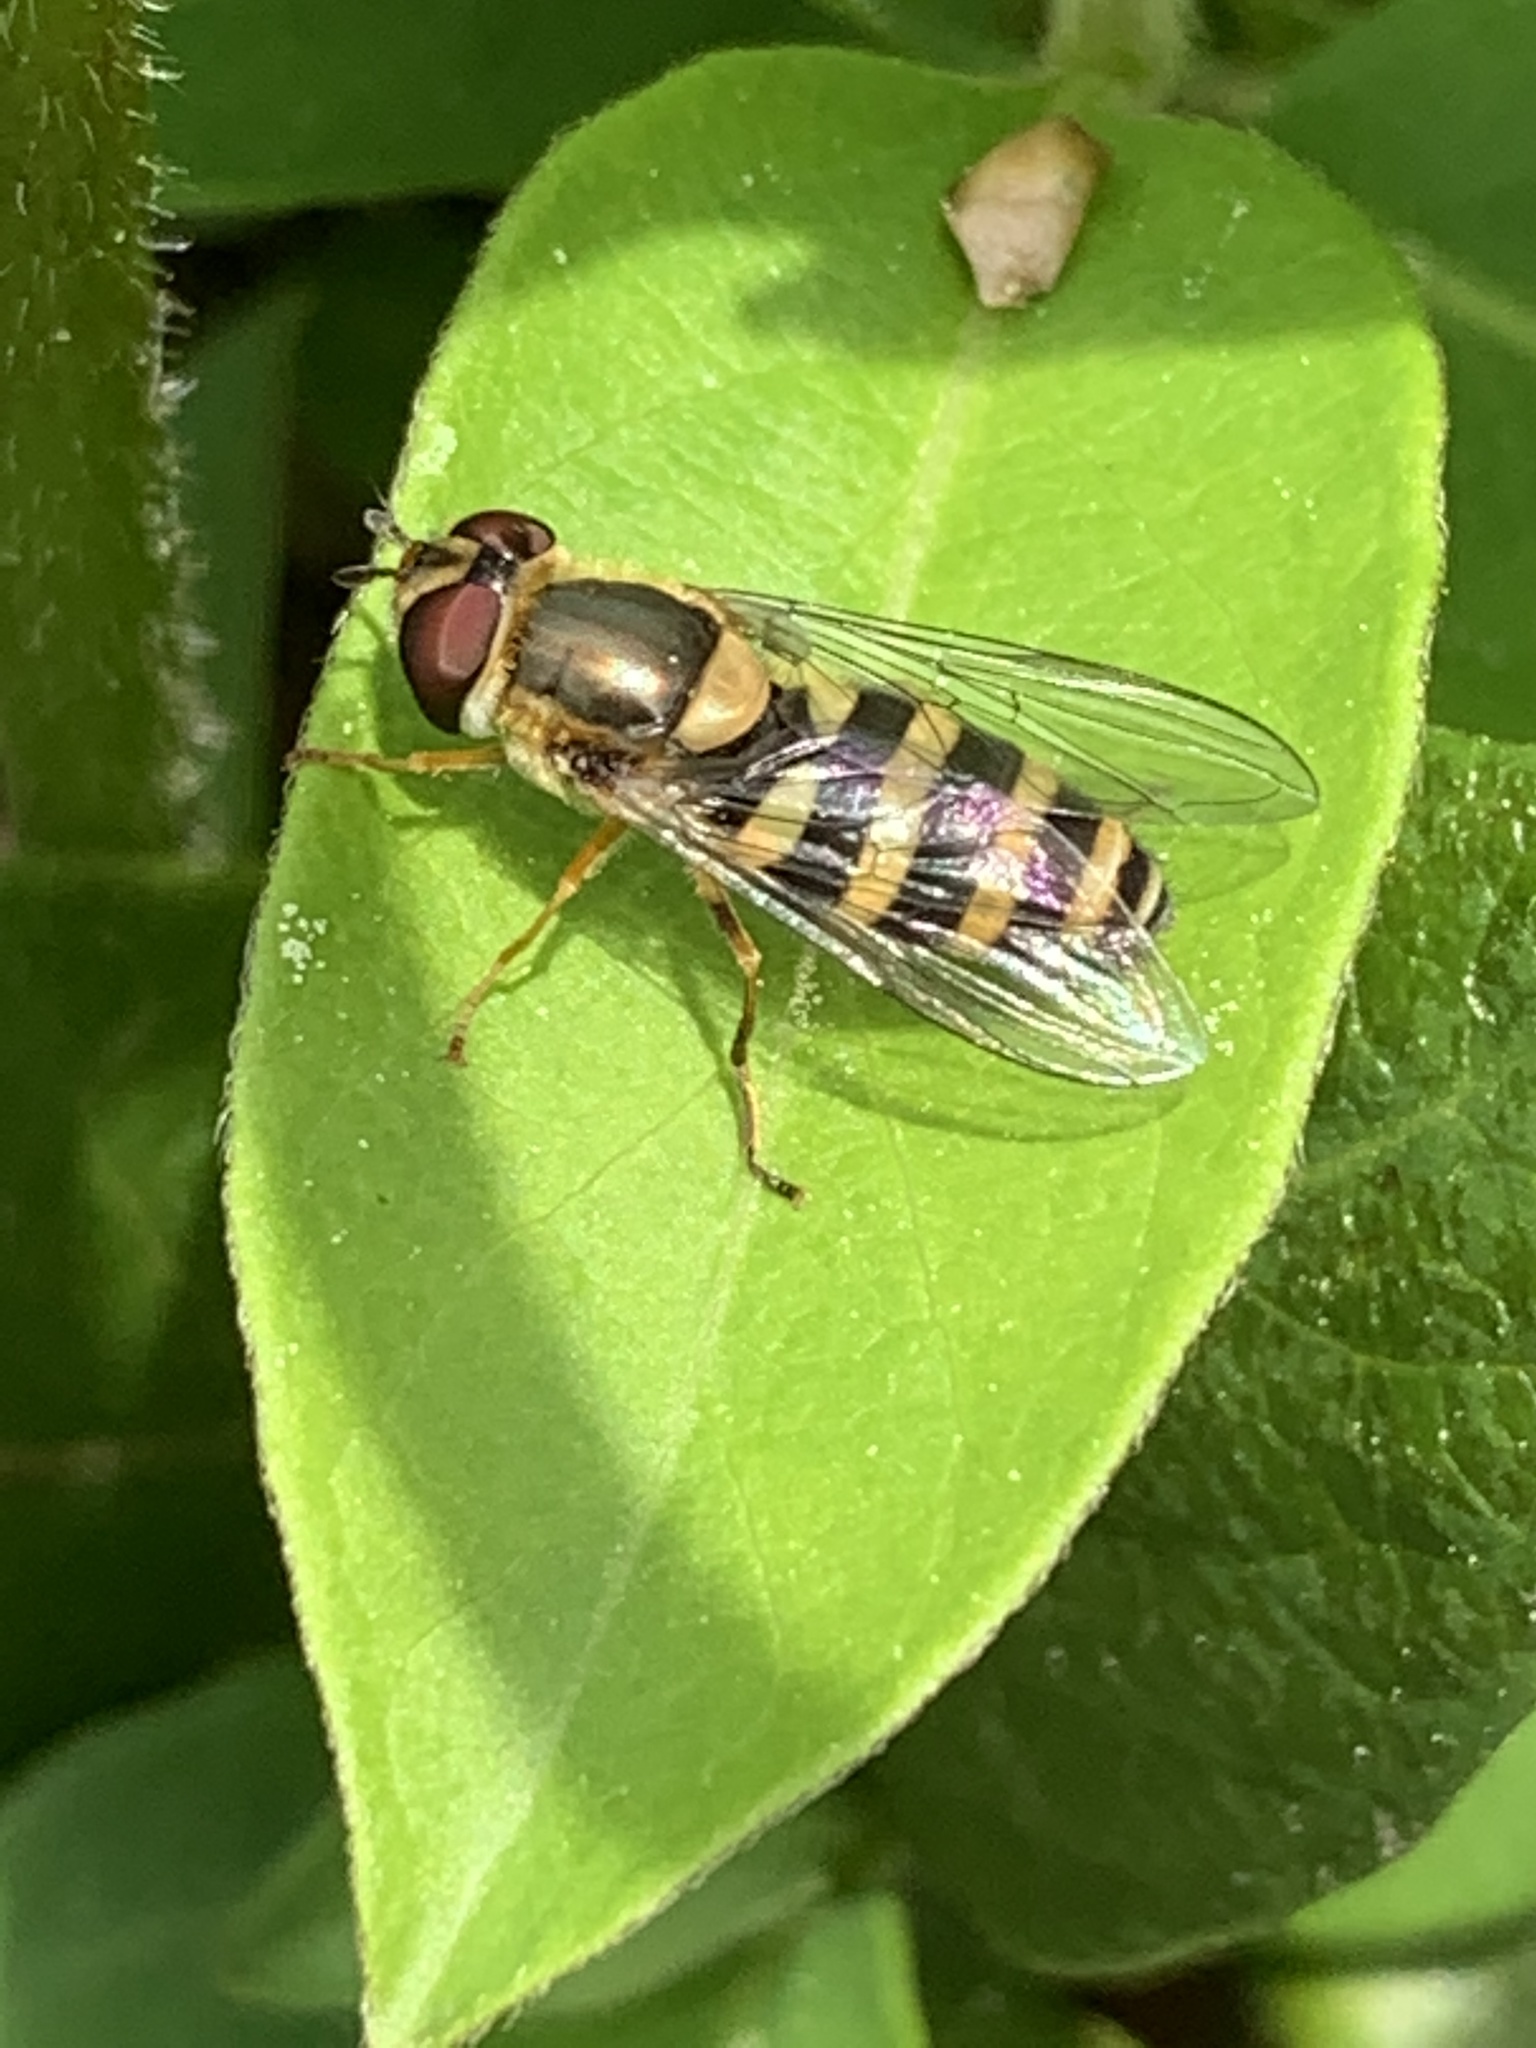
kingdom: Animalia
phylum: Arthropoda
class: Insecta
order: Diptera
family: Syrphidae
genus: Syrphus
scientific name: Syrphus knabi
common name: Eastern flower fly
